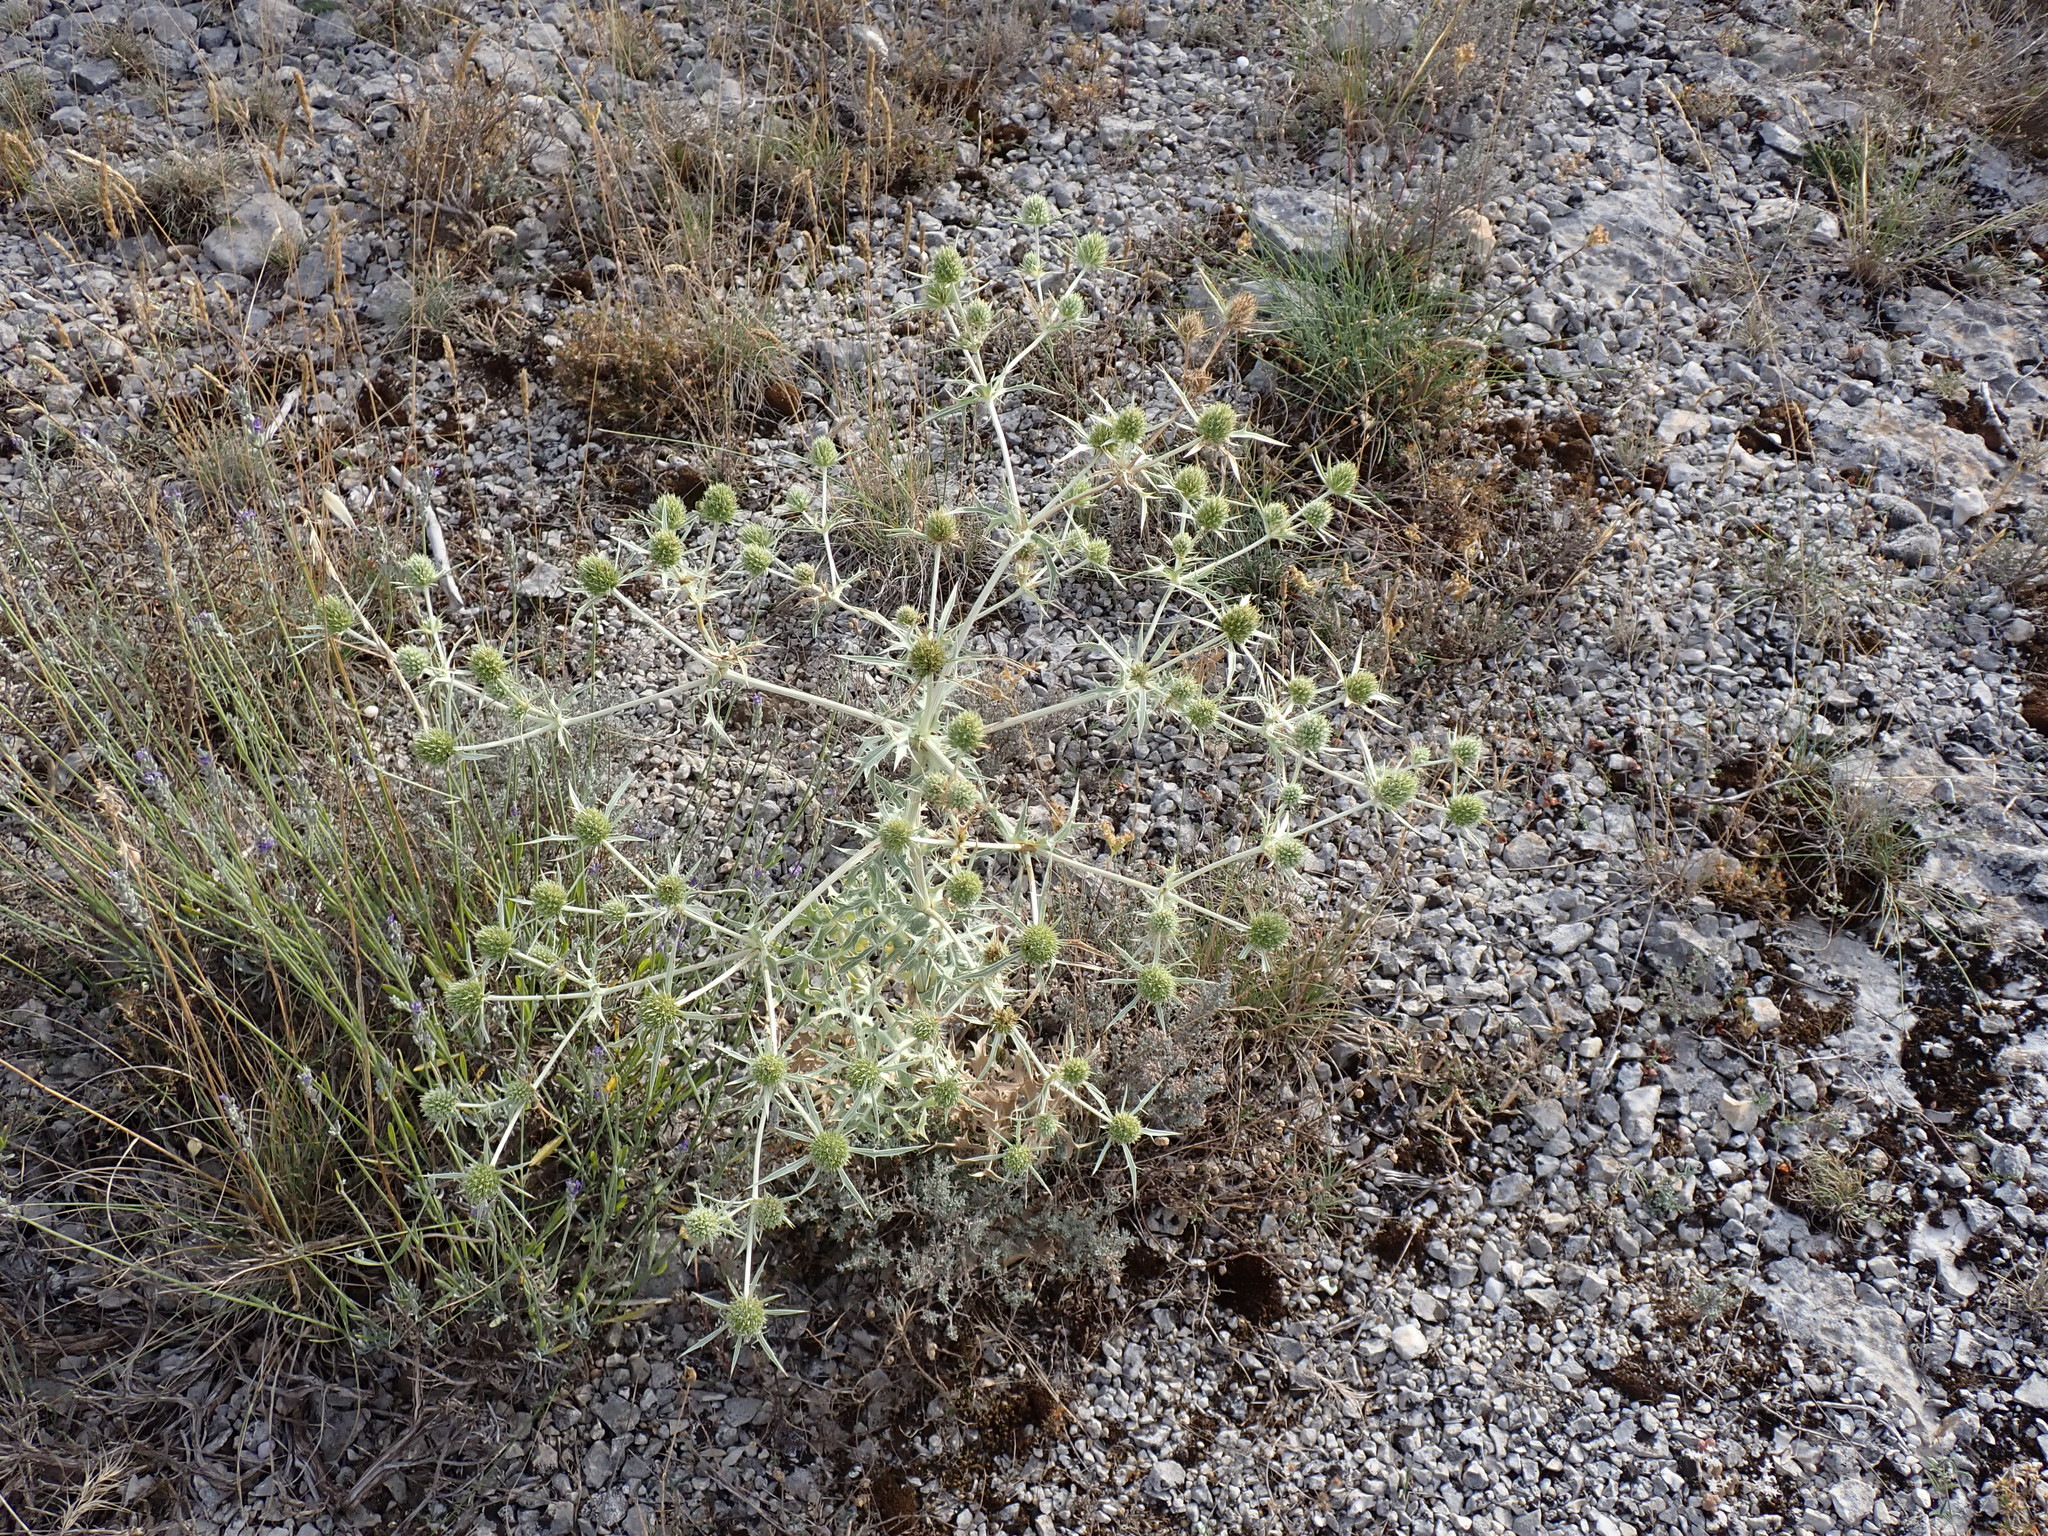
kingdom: Plantae
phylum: Tracheophyta
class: Magnoliopsida
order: Apiales
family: Apiaceae
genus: Eryngium
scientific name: Eryngium campestre
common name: Field eryngo
